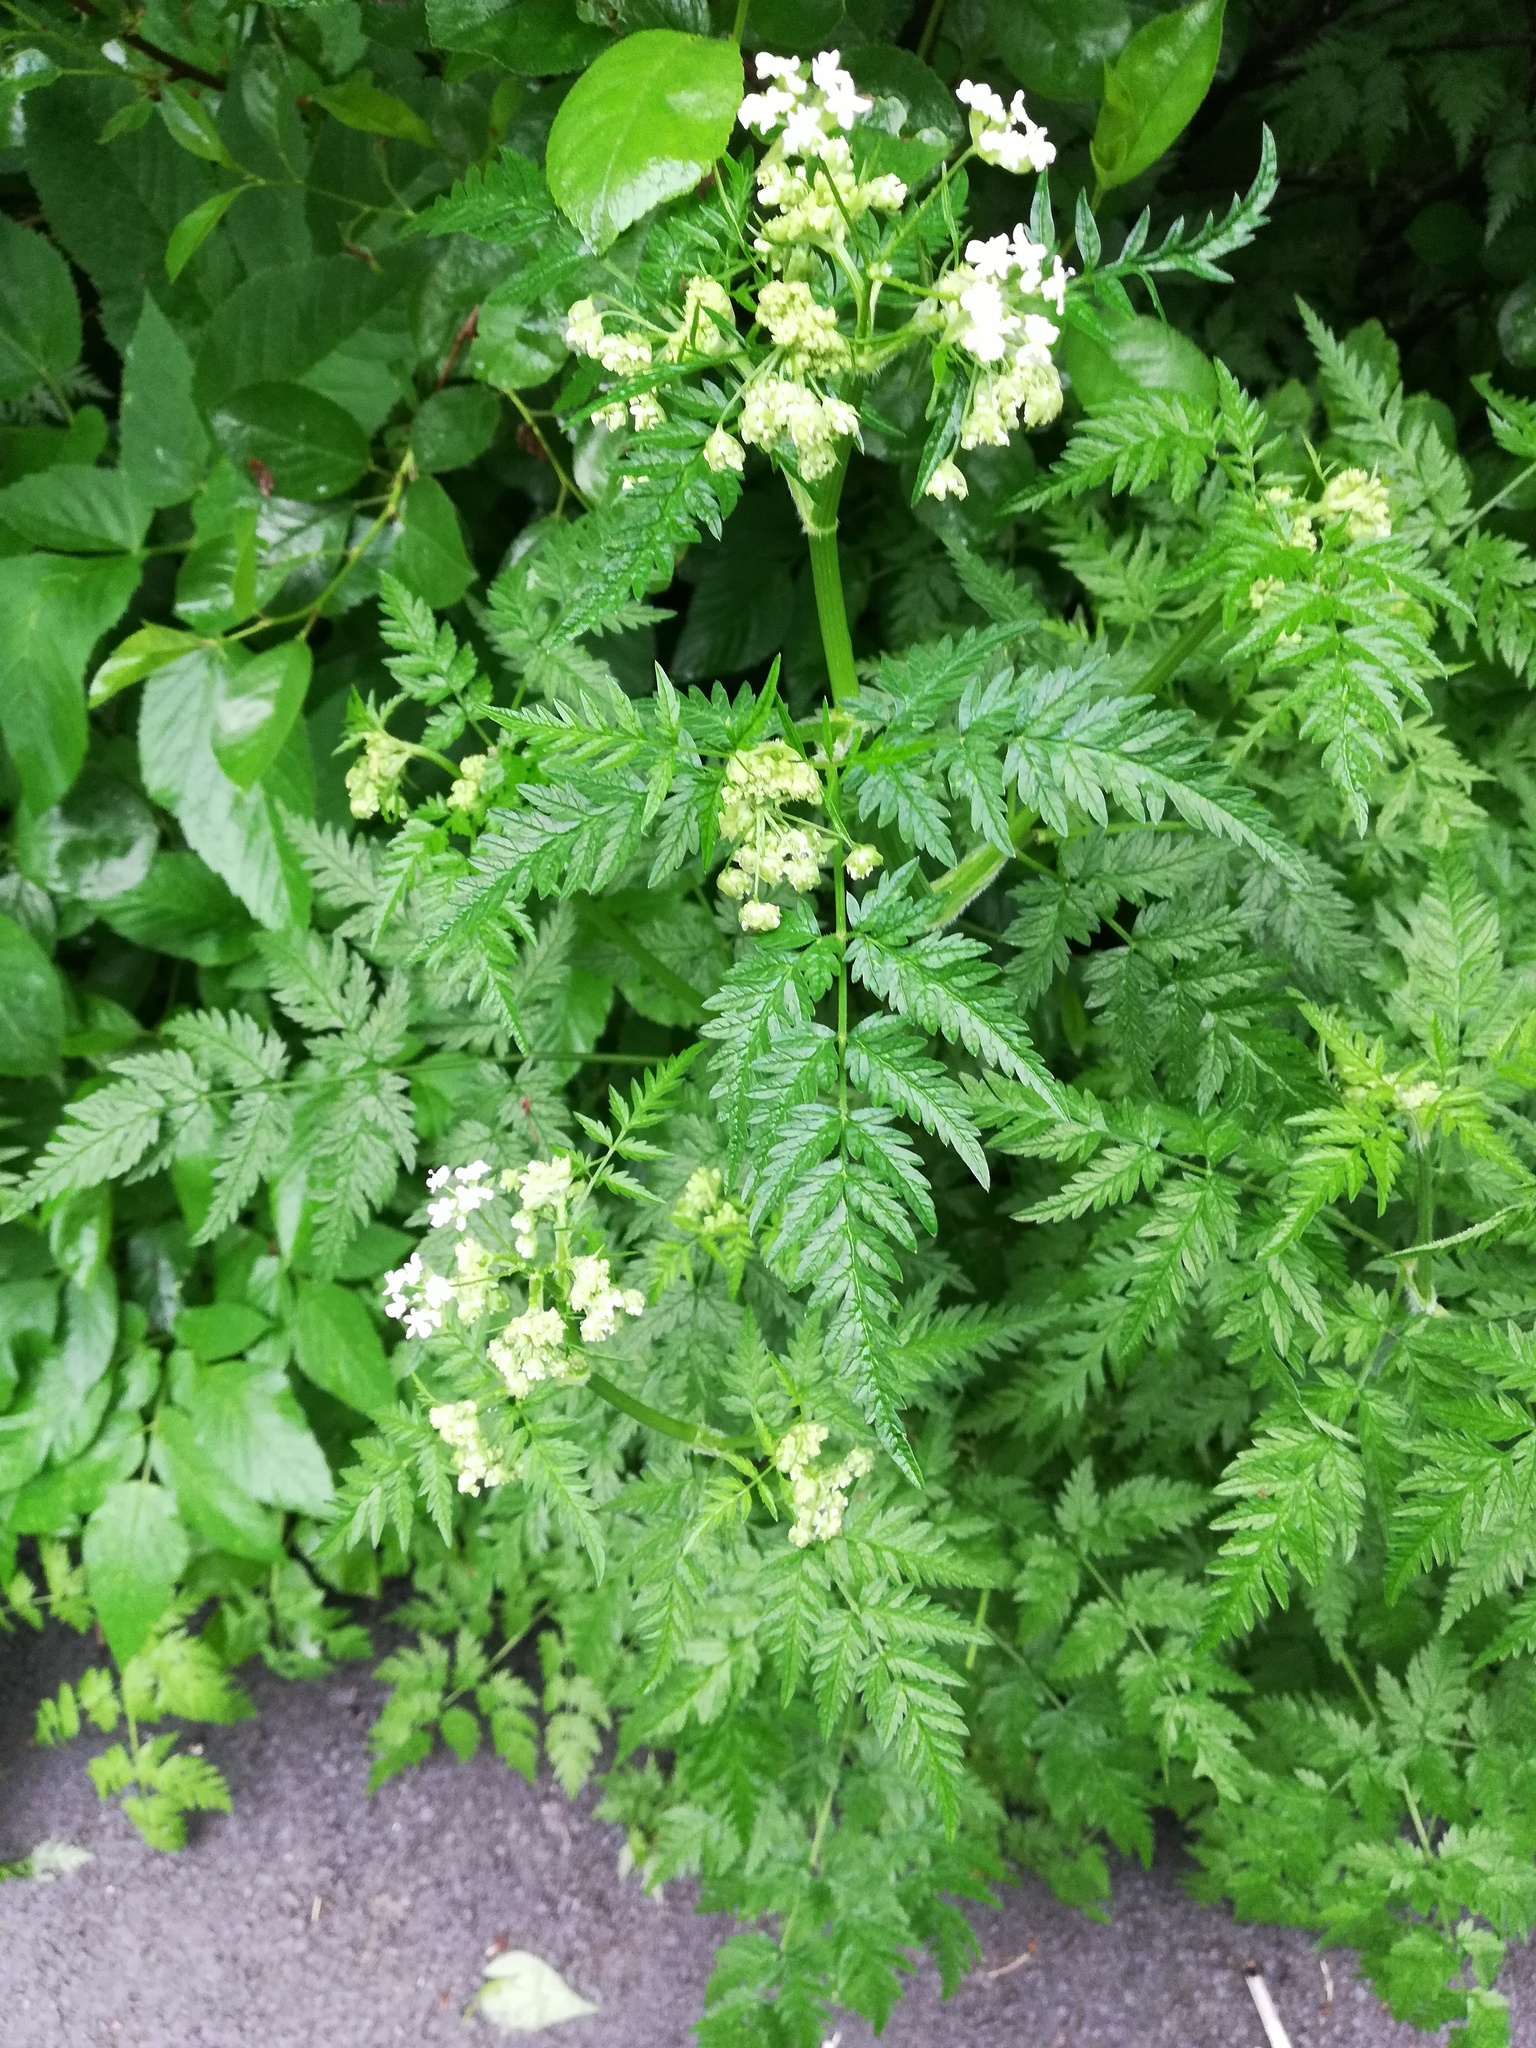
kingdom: Plantae
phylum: Tracheophyta
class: Magnoliopsida
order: Apiales
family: Apiaceae
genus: Anthriscus
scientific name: Anthriscus sylvestris
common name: Cow parsley
